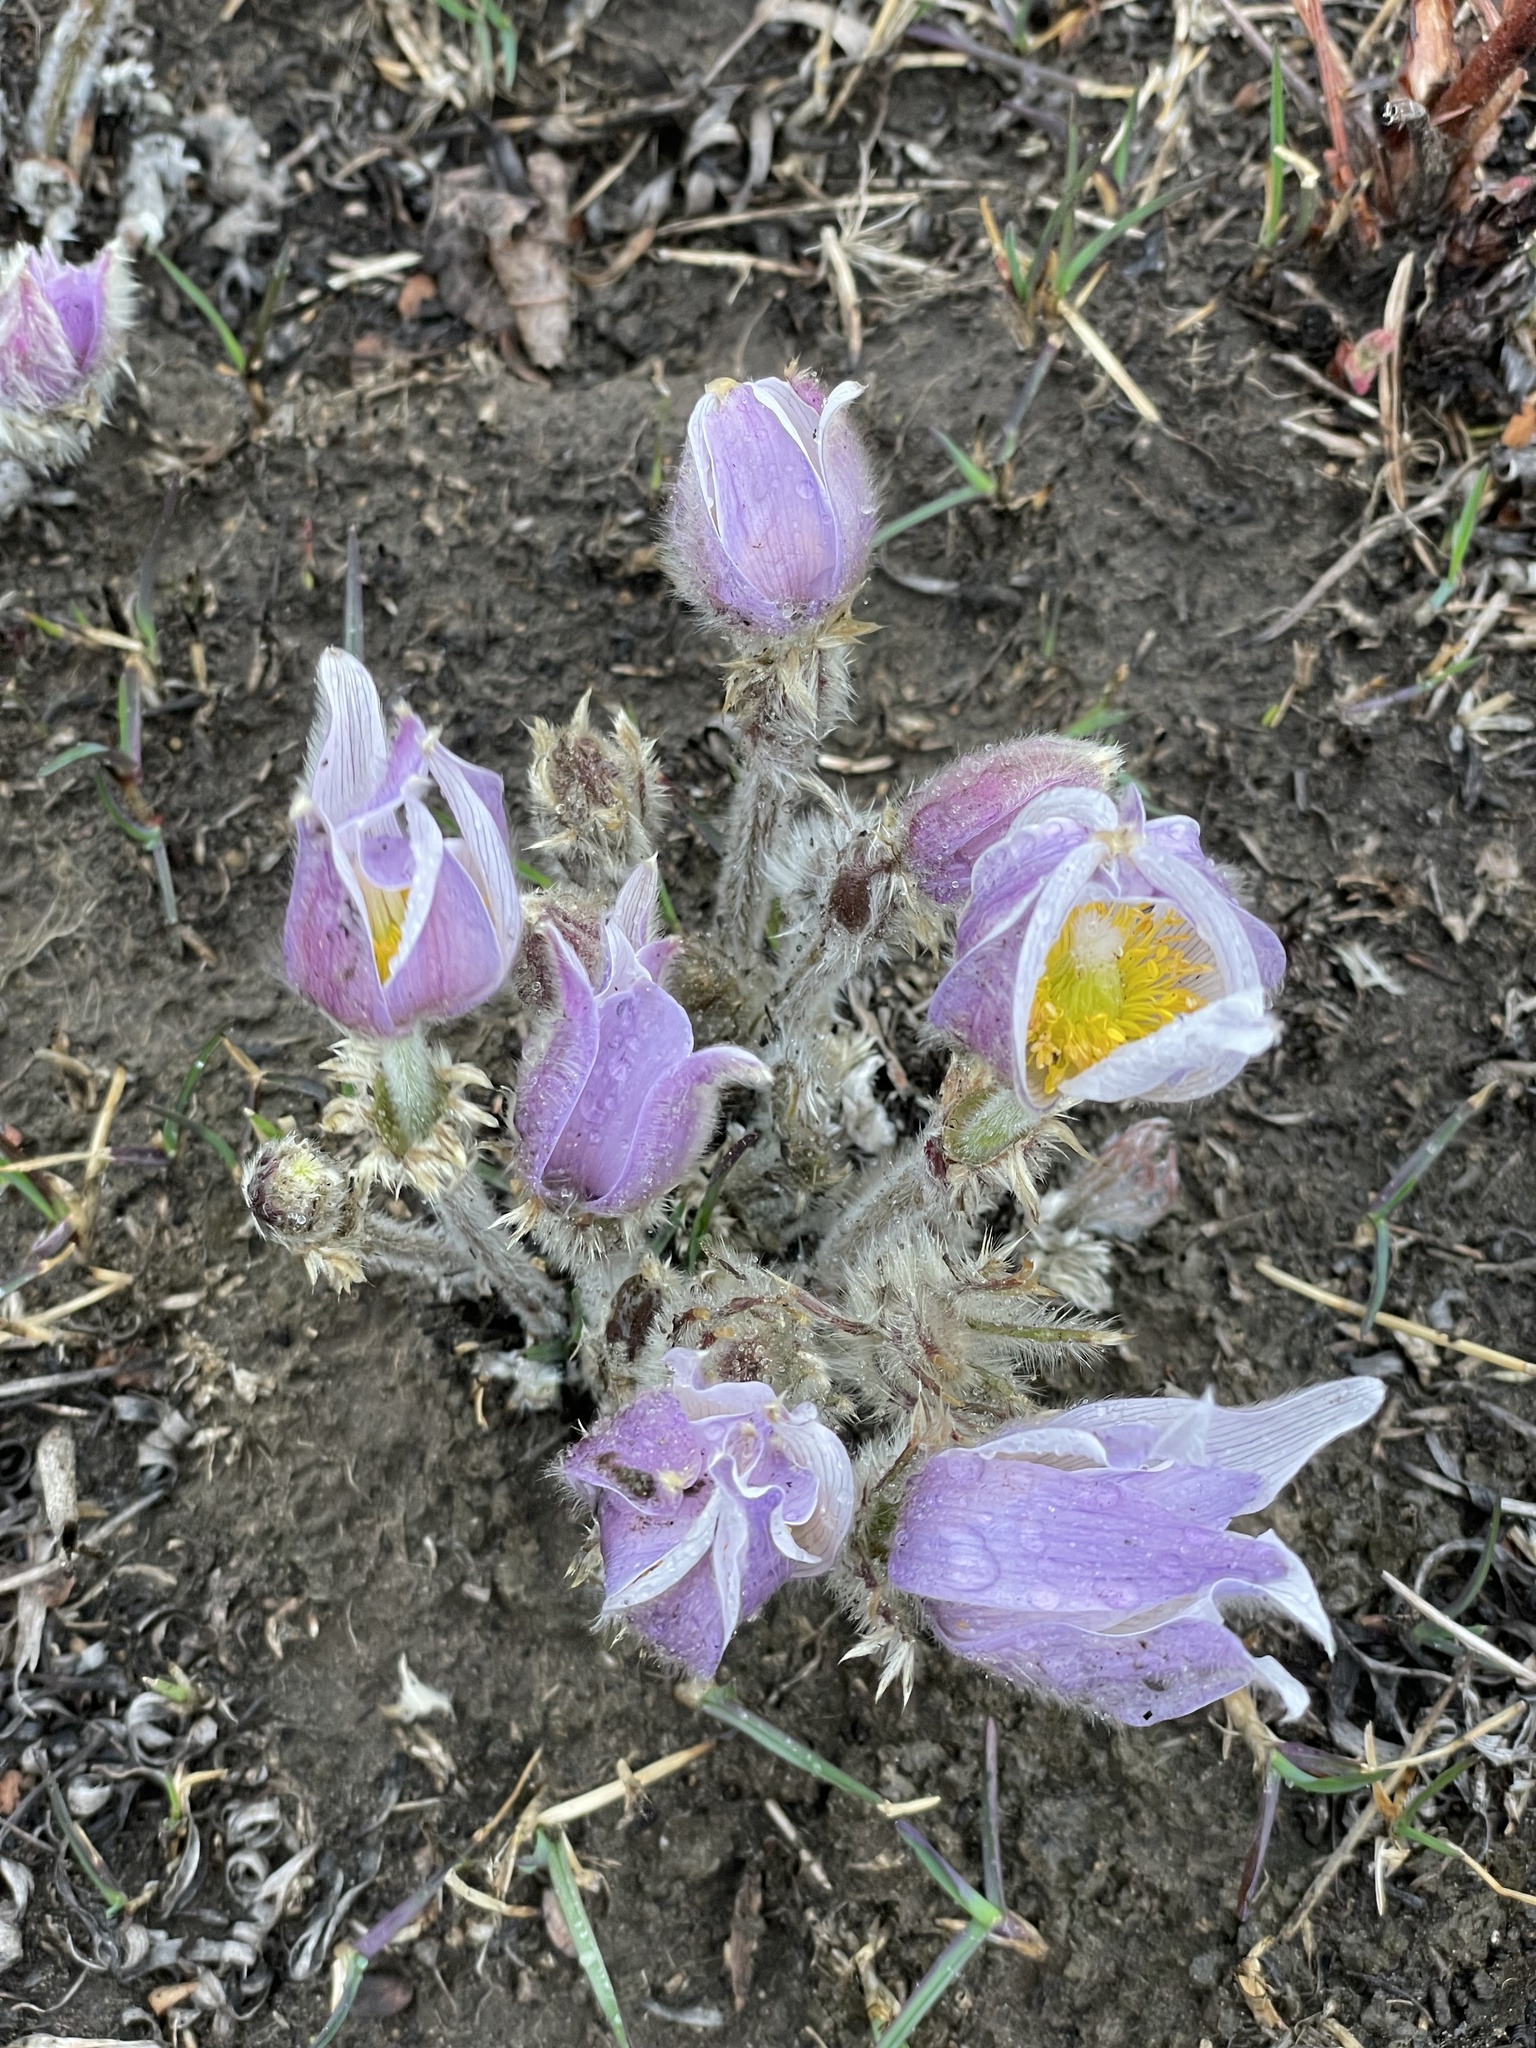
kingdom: Plantae
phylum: Tracheophyta
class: Magnoliopsida
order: Ranunculales
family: Ranunculaceae
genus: Pulsatilla
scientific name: Pulsatilla nuttalliana
